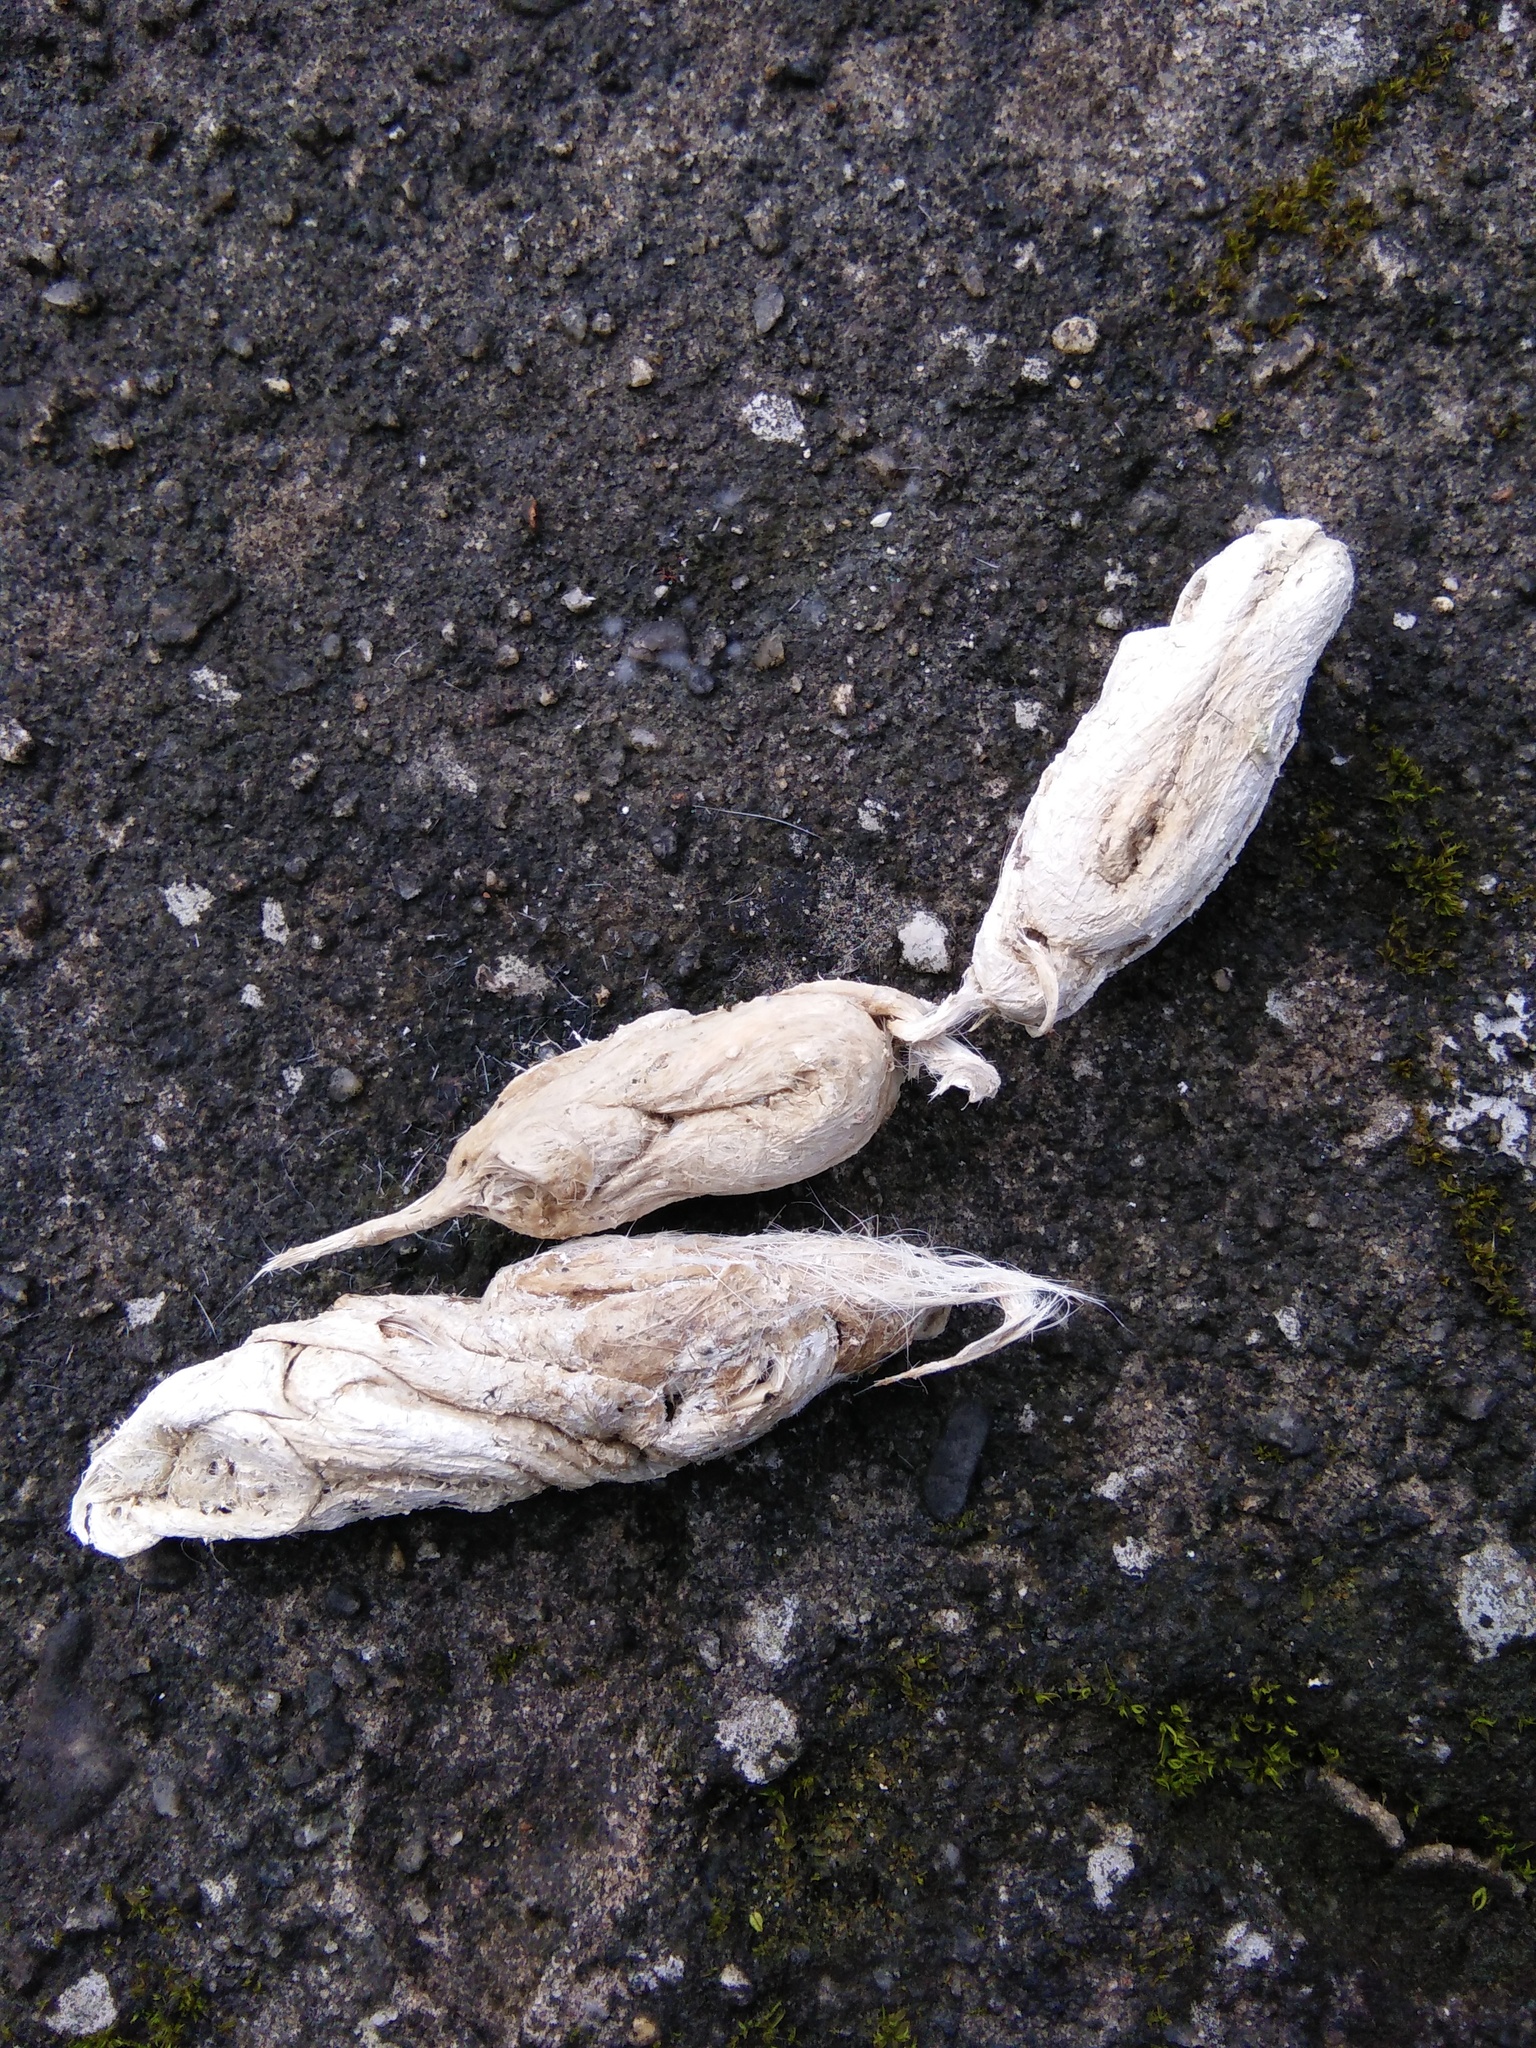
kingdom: Animalia
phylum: Chordata
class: Mammalia
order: Carnivora
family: Felidae
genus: Panthera
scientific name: Panthera pardus
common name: Leopard
